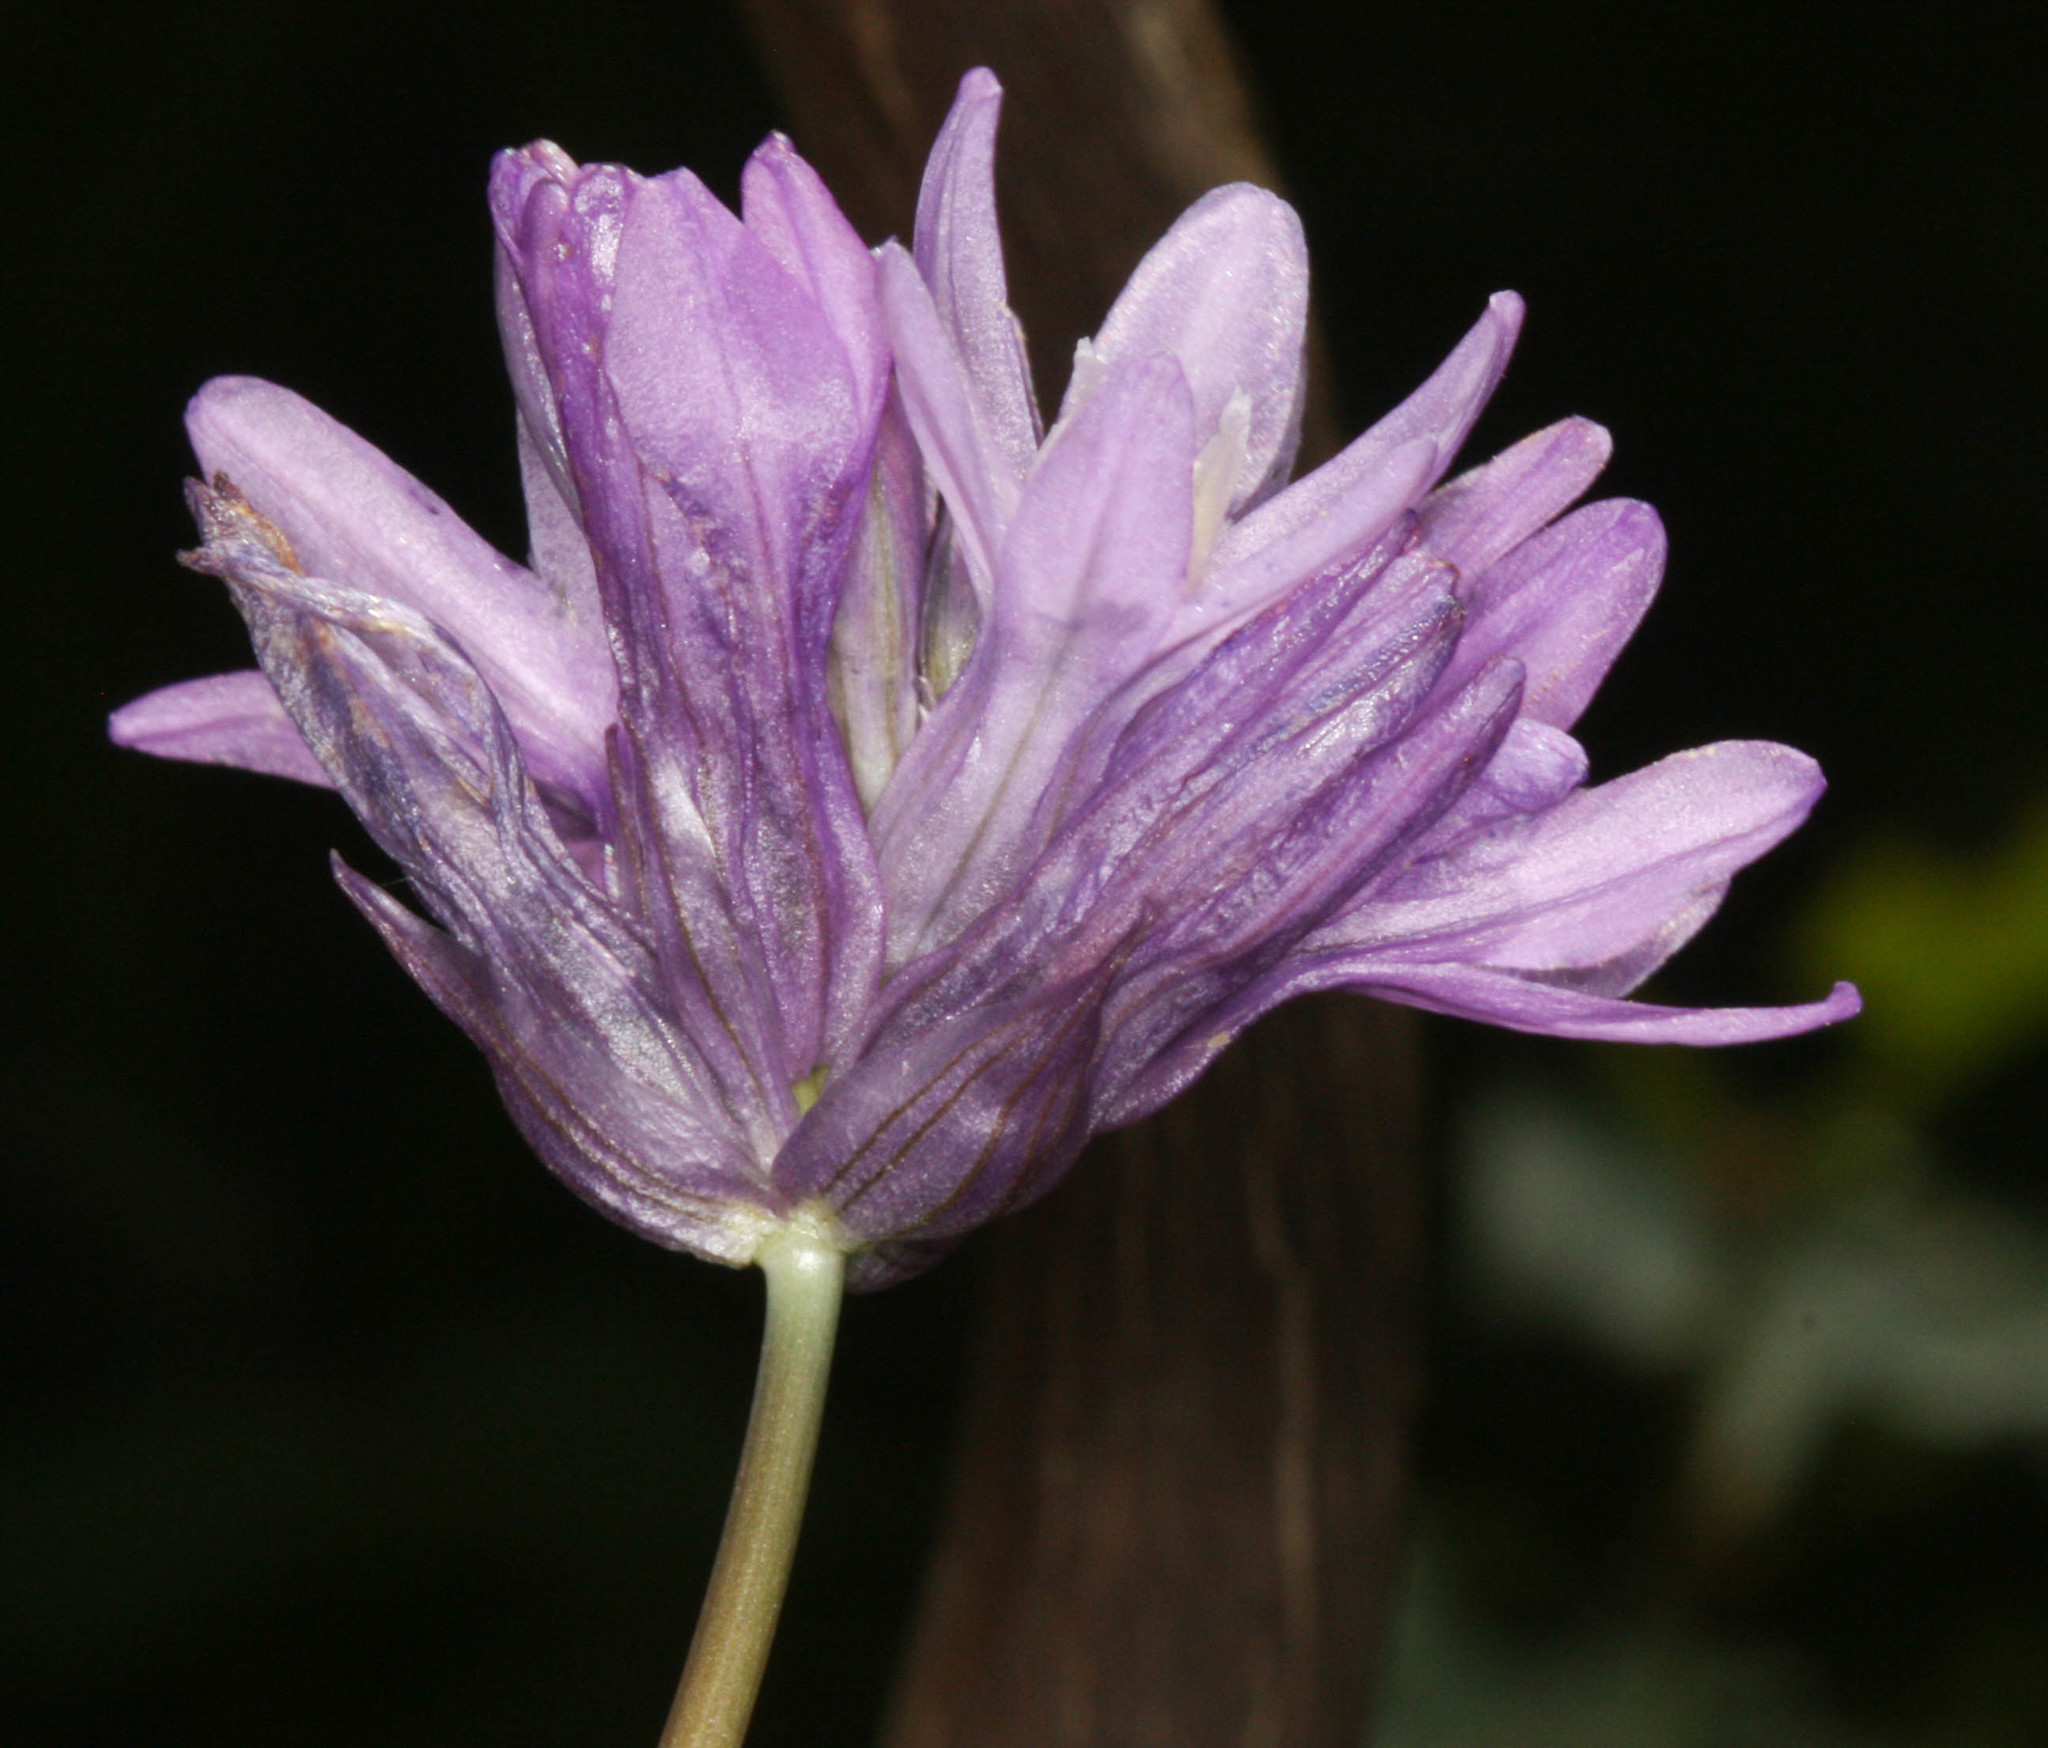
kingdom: Plantae
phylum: Tracheophyta
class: Liliopsida
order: Asparagales
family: Asparagaceae
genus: Dichelostemma
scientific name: Dichelostemma congestum
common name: Fork-tooth ookow
